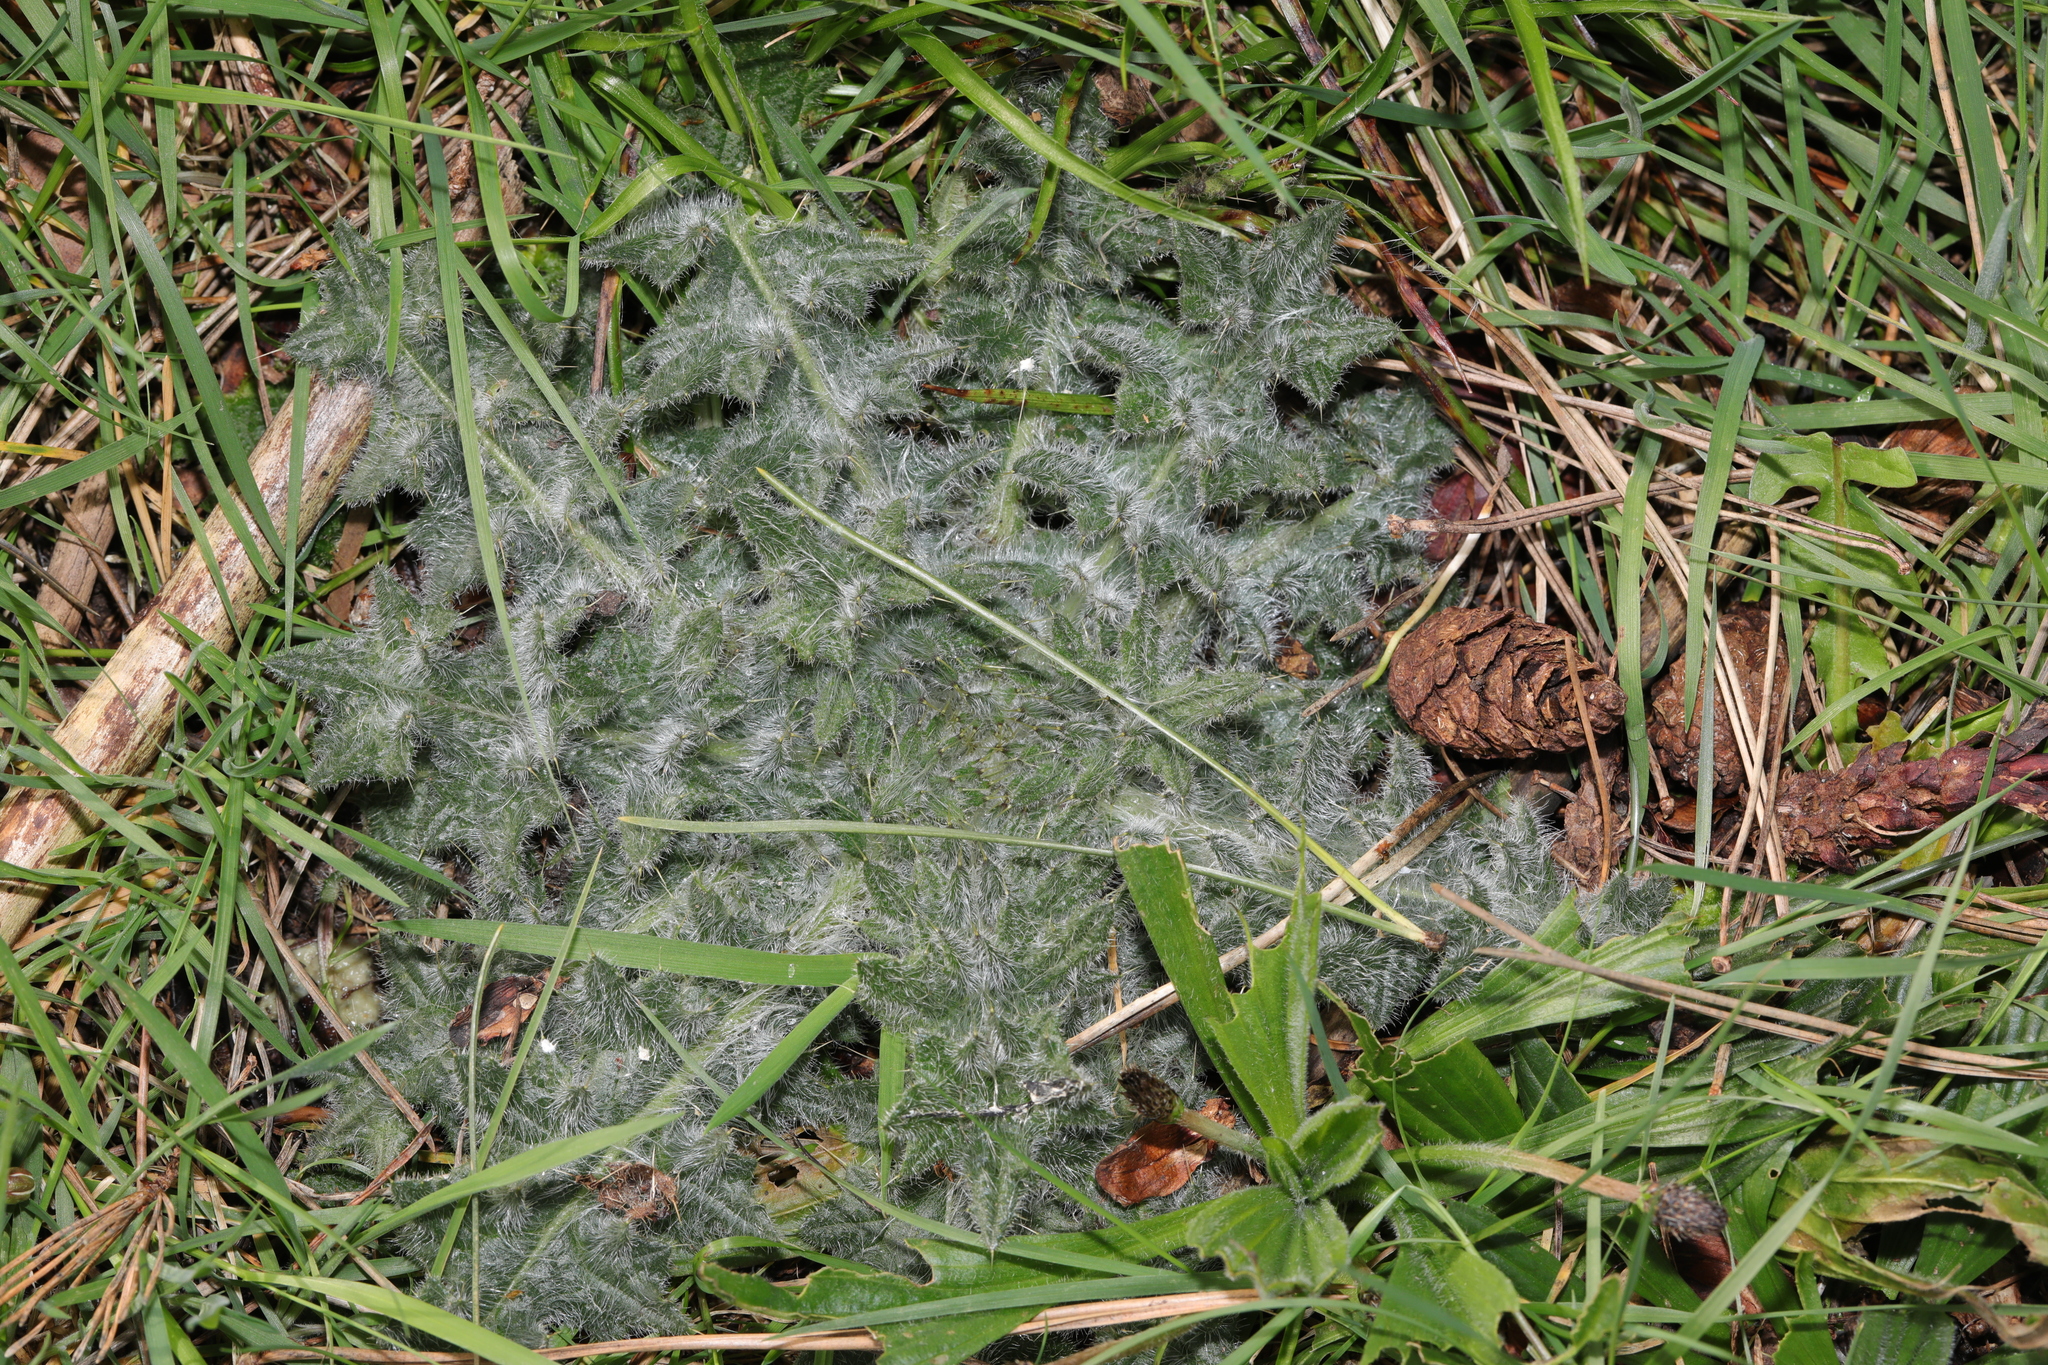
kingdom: Plantae
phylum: Tracheophyta
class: Magnoliopsida
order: Asterales
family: Asteraceae
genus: Cirsium
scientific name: Cirsium vulgare
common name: Bull thistle
